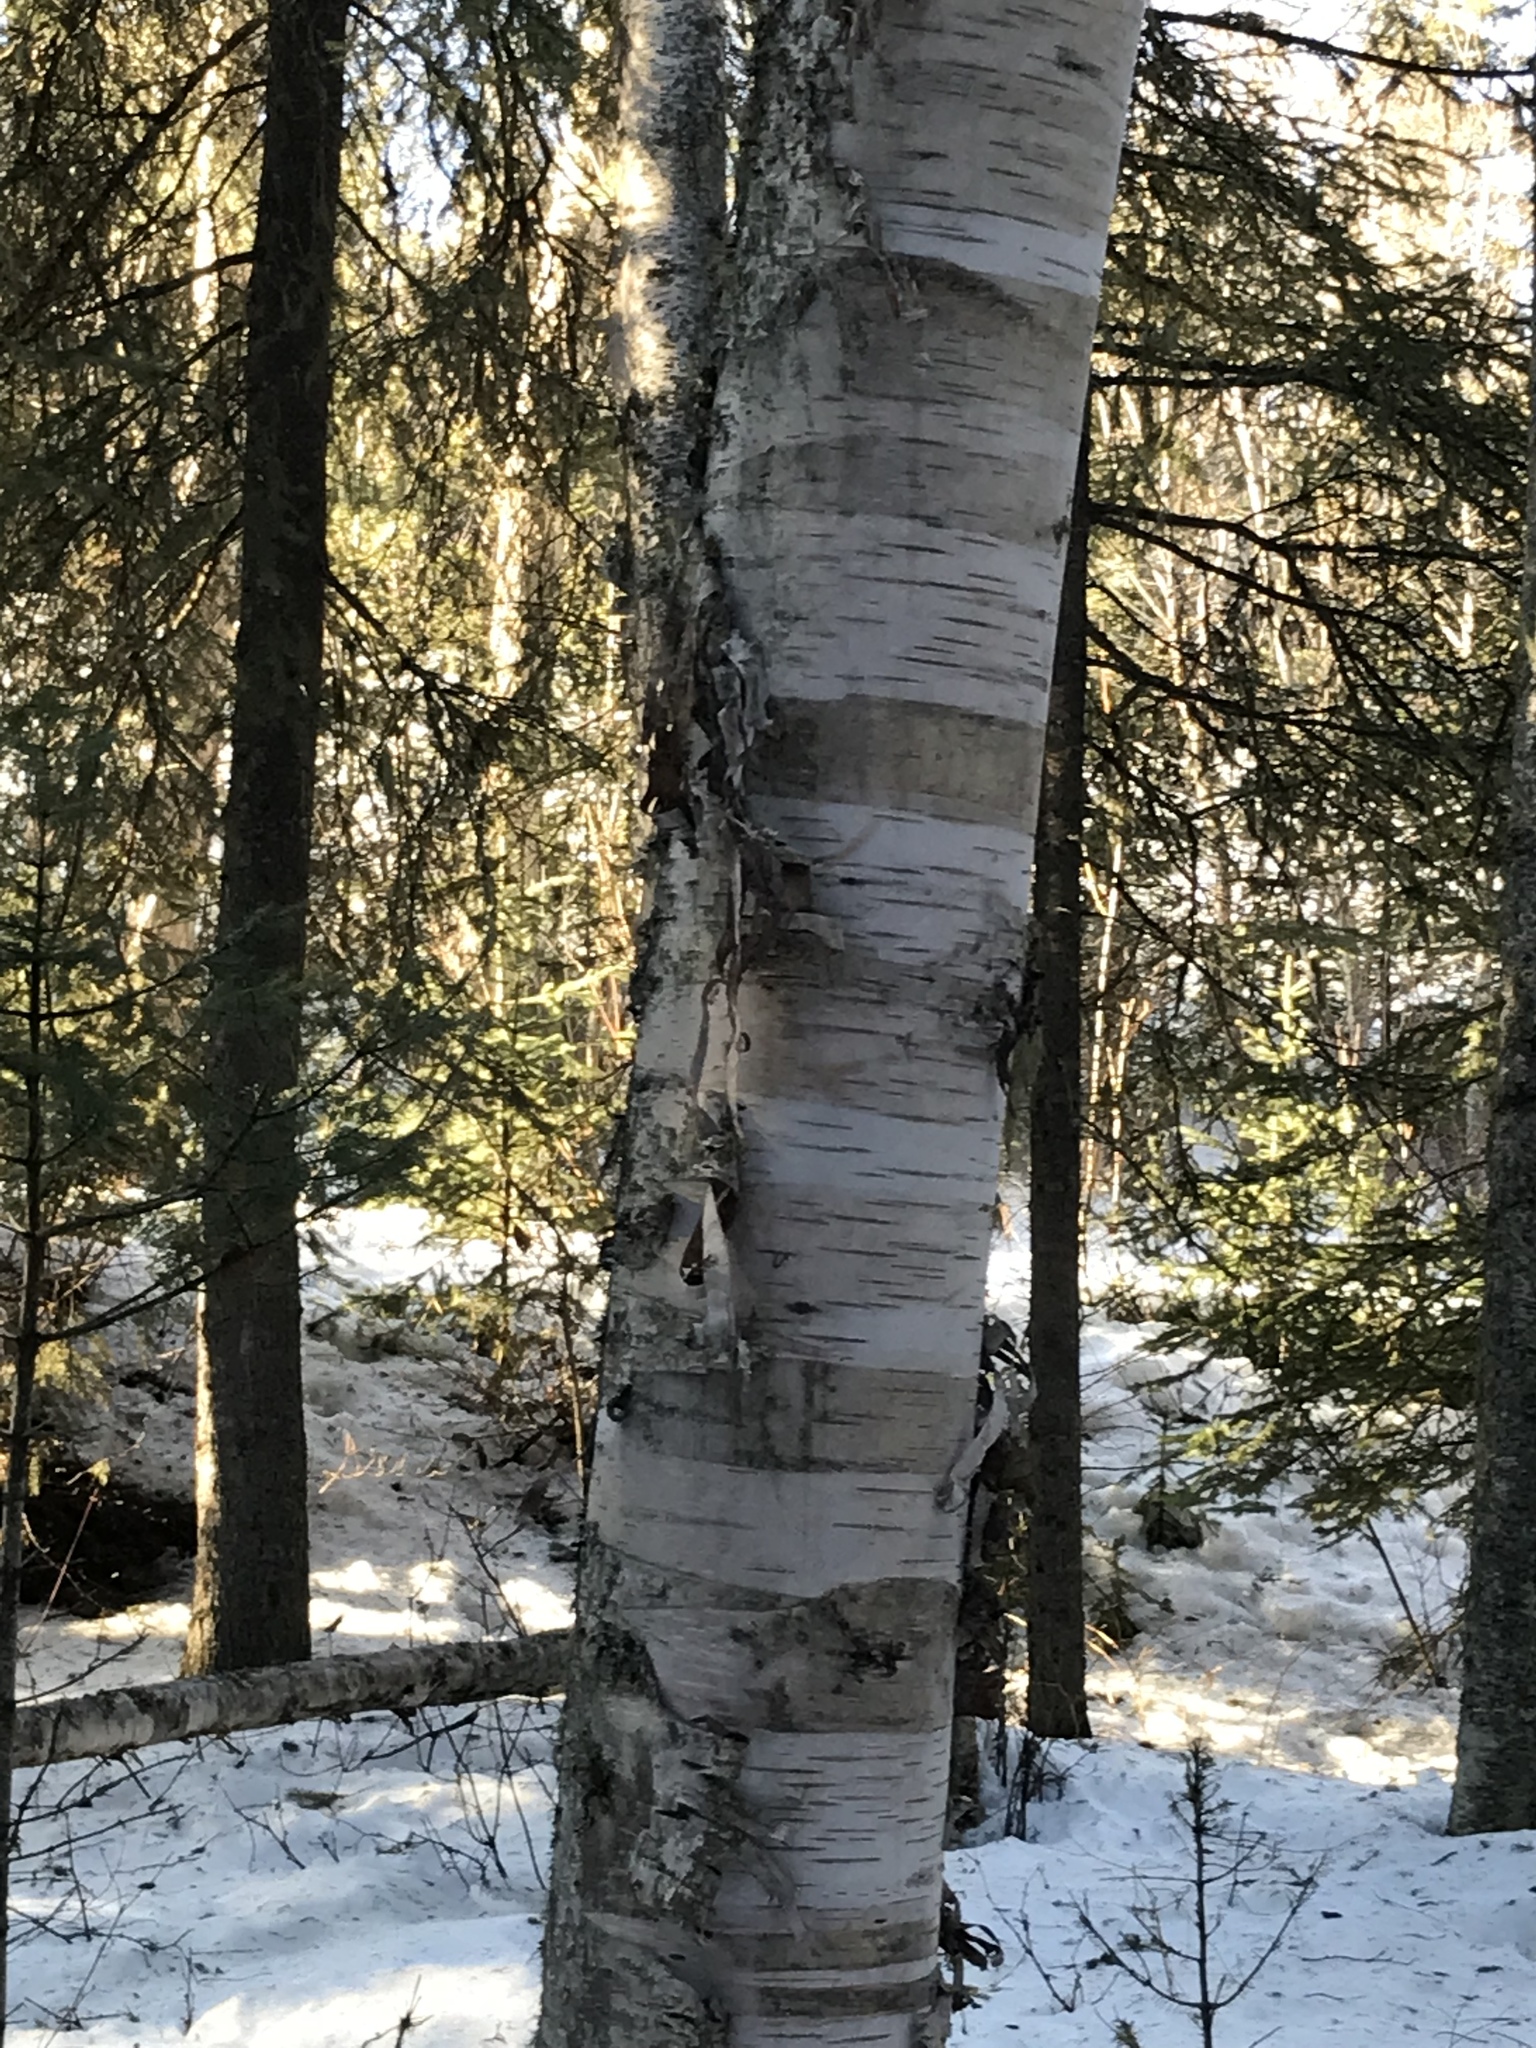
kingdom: Plantae
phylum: Tracheophyta
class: Magnoliopsida
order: Fagales
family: Betulaceae
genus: Betula
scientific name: Betula papyrifera
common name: Paper birch
